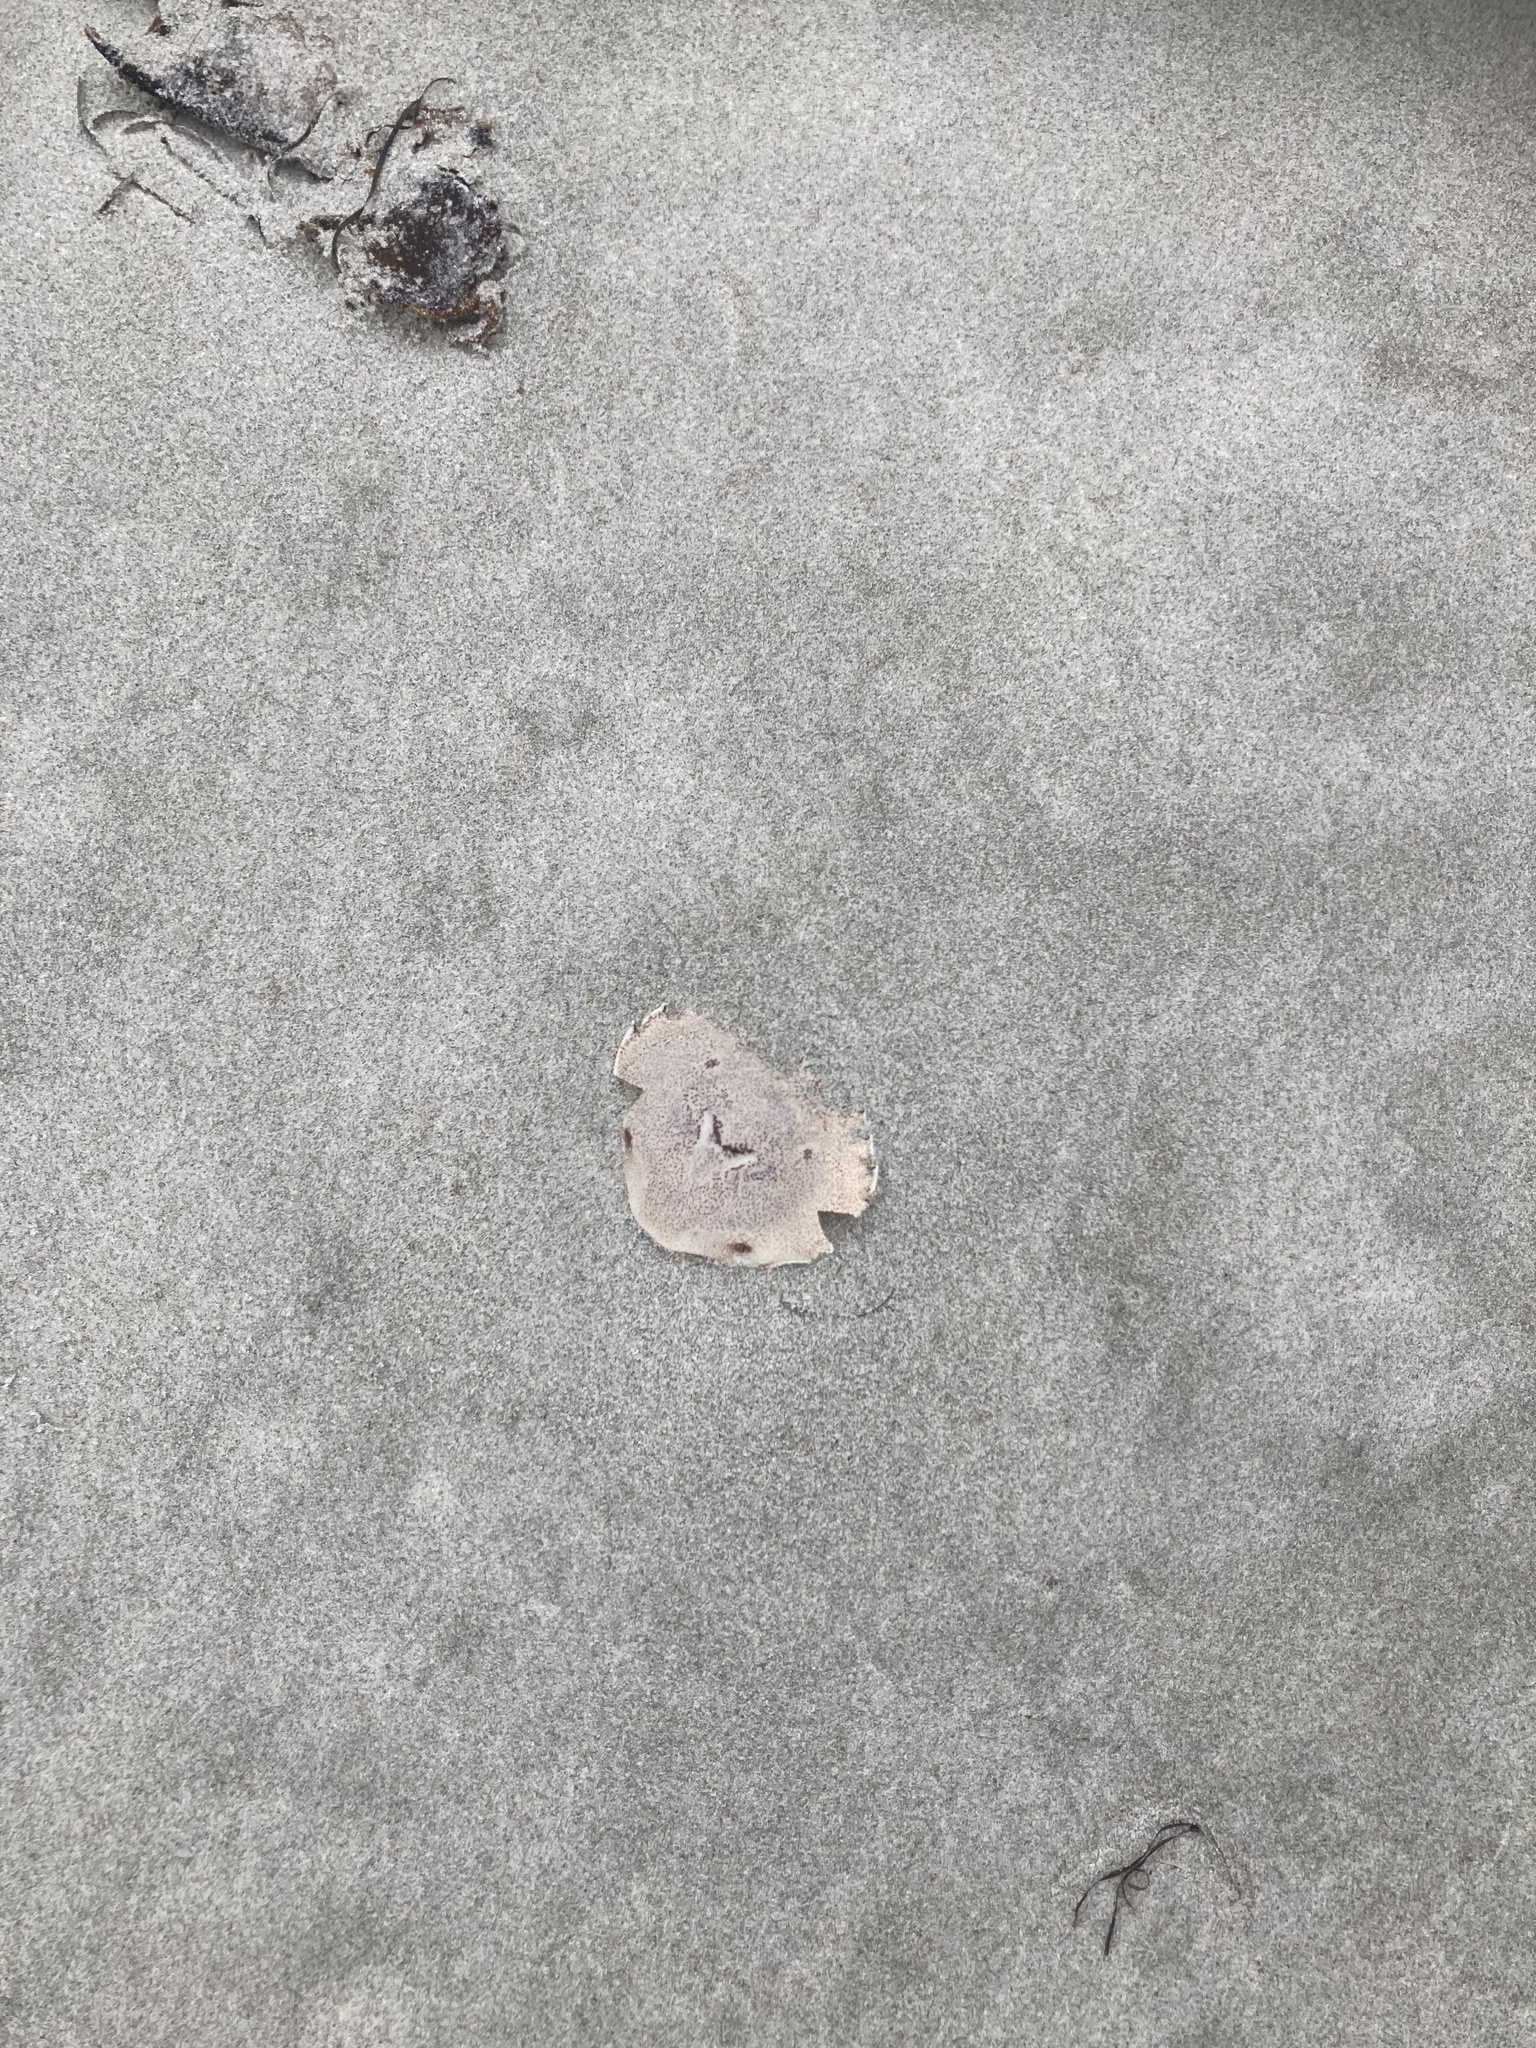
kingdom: Animalia
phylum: Arthropoda
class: Malacostraca
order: Decapoda
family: Ovalipidae
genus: Ovalipes
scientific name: Ovalipes catharus
